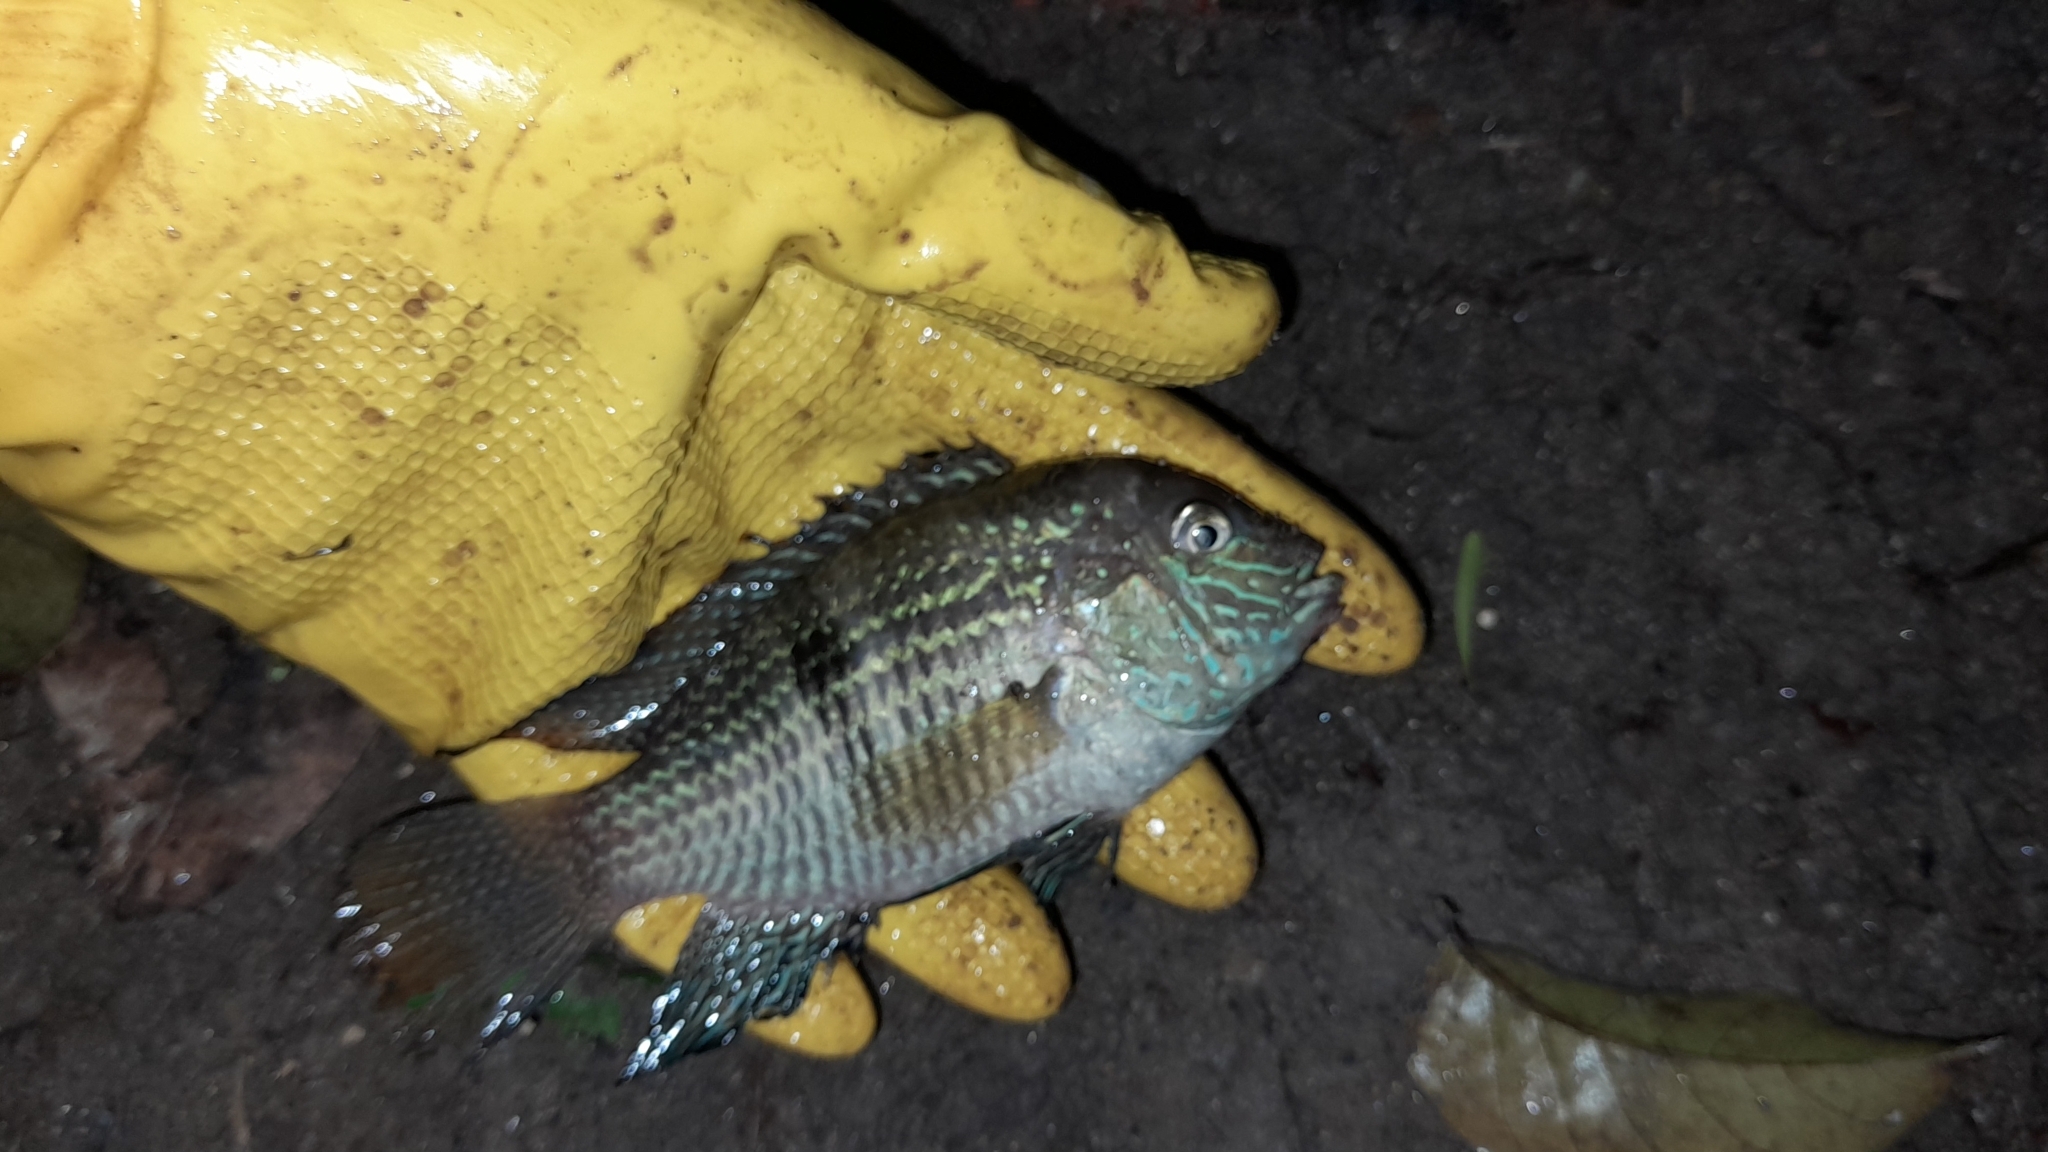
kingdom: Animalia
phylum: Chordata
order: Perciformes
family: Cichlidae
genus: Andinoacara
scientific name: Andinoacara coeruleopunctatus
